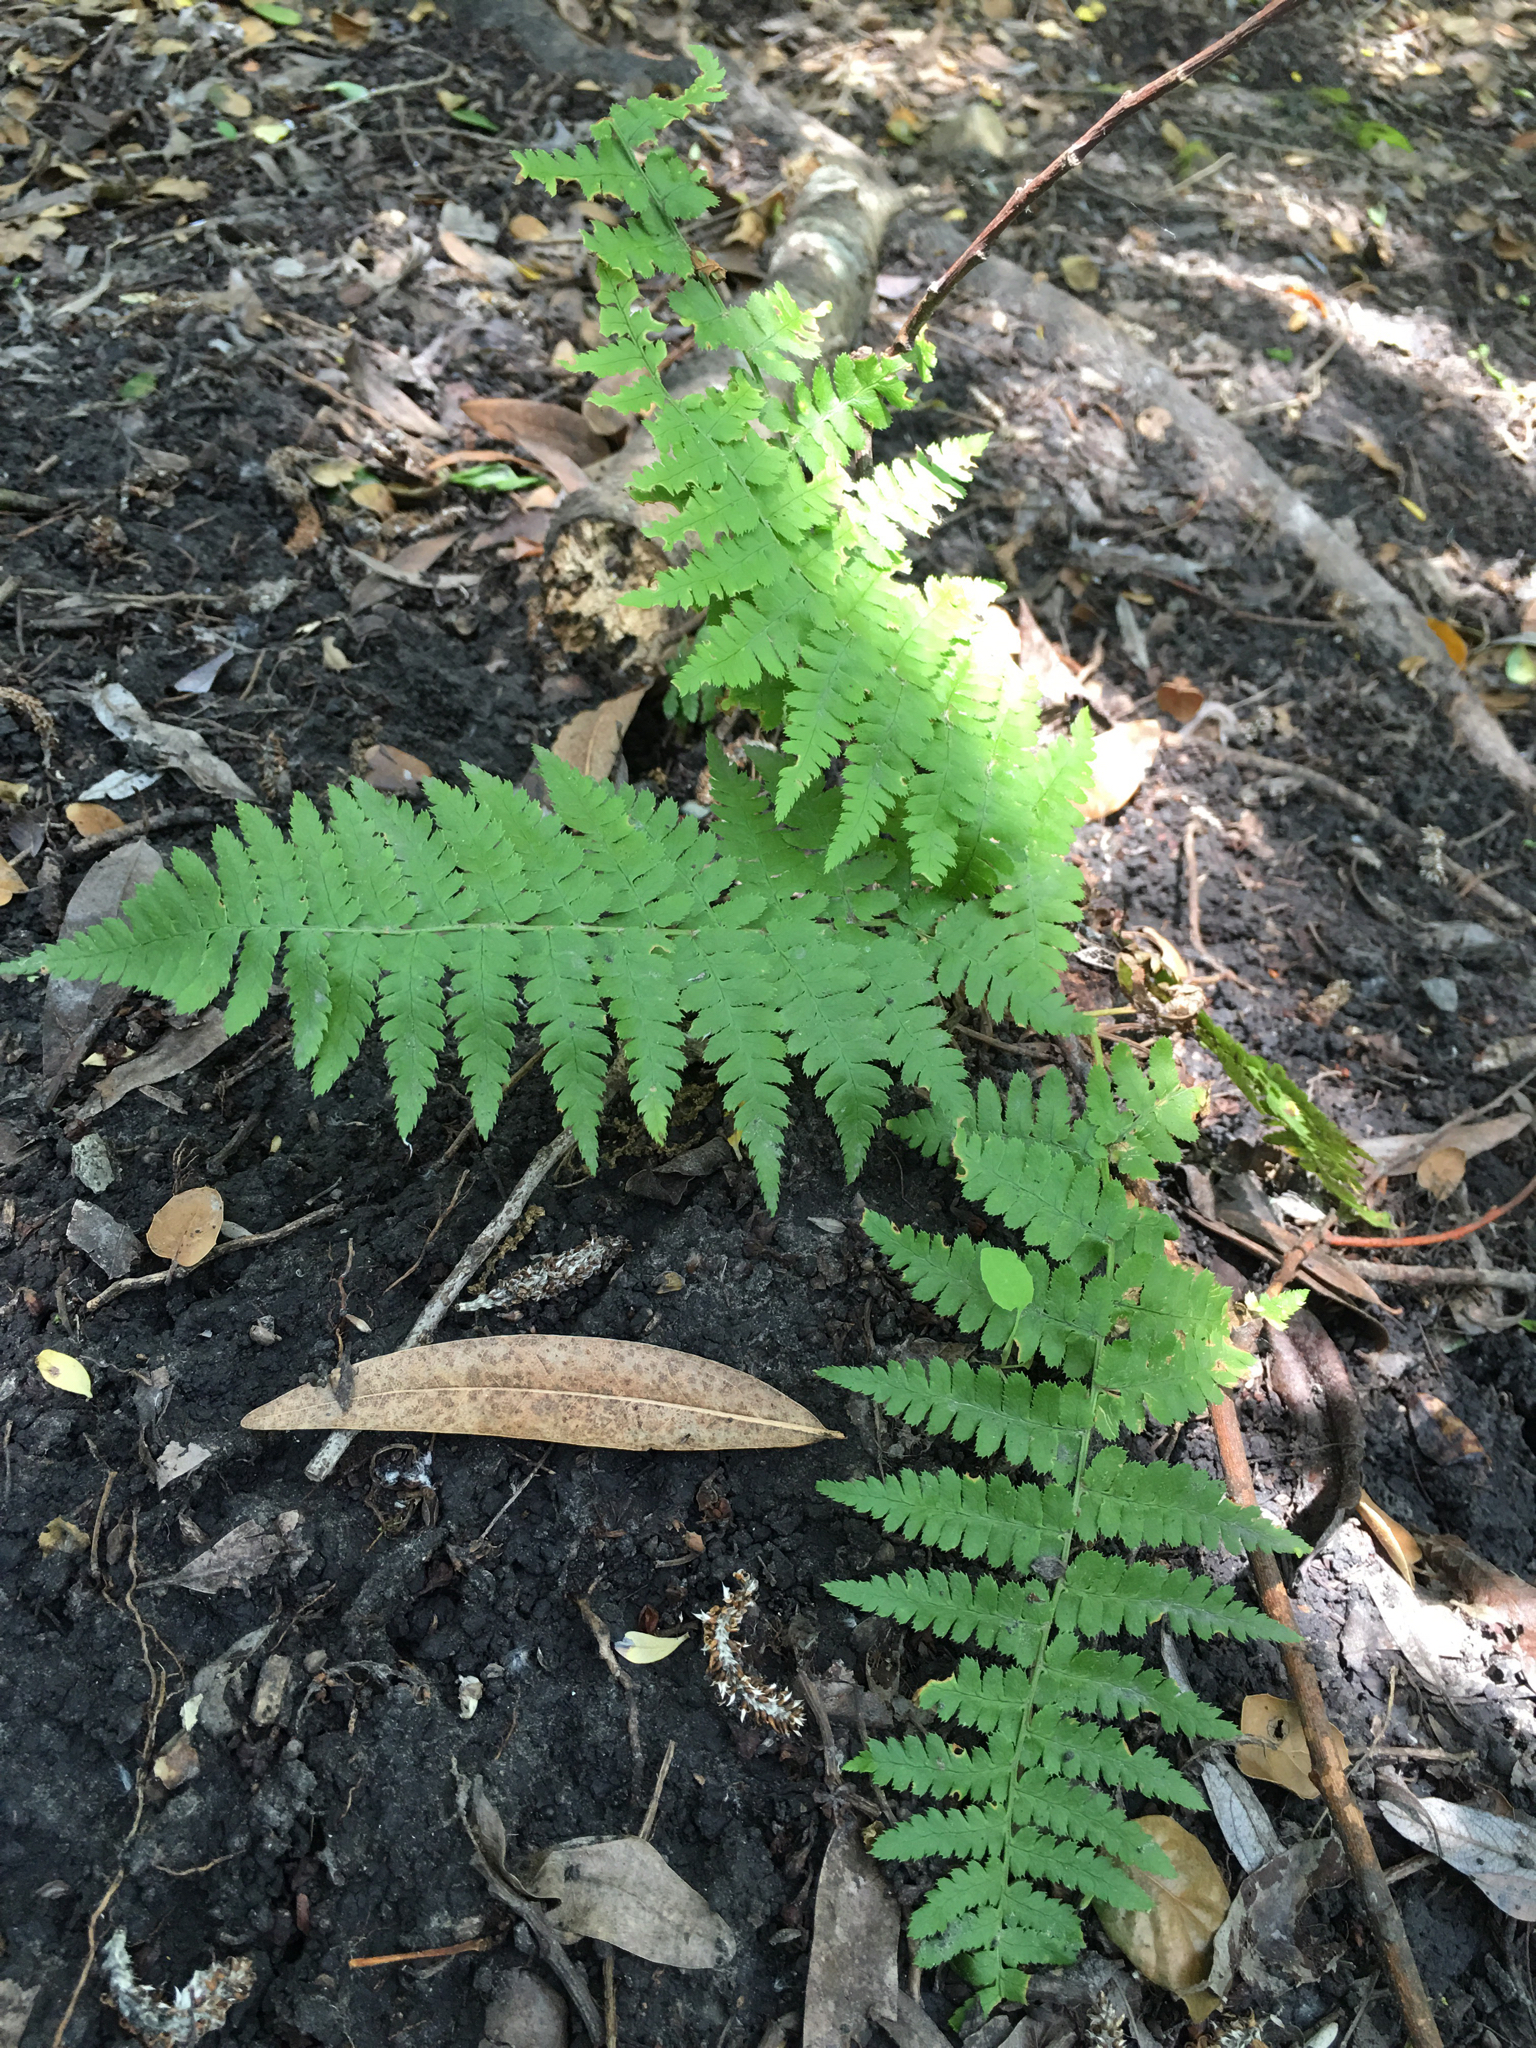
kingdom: Plantae
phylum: Tracheophyta
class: Polypodiopsida
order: Polypodiales
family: Dryopteridaceae
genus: Dryopteris
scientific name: Dryopteris arguta
